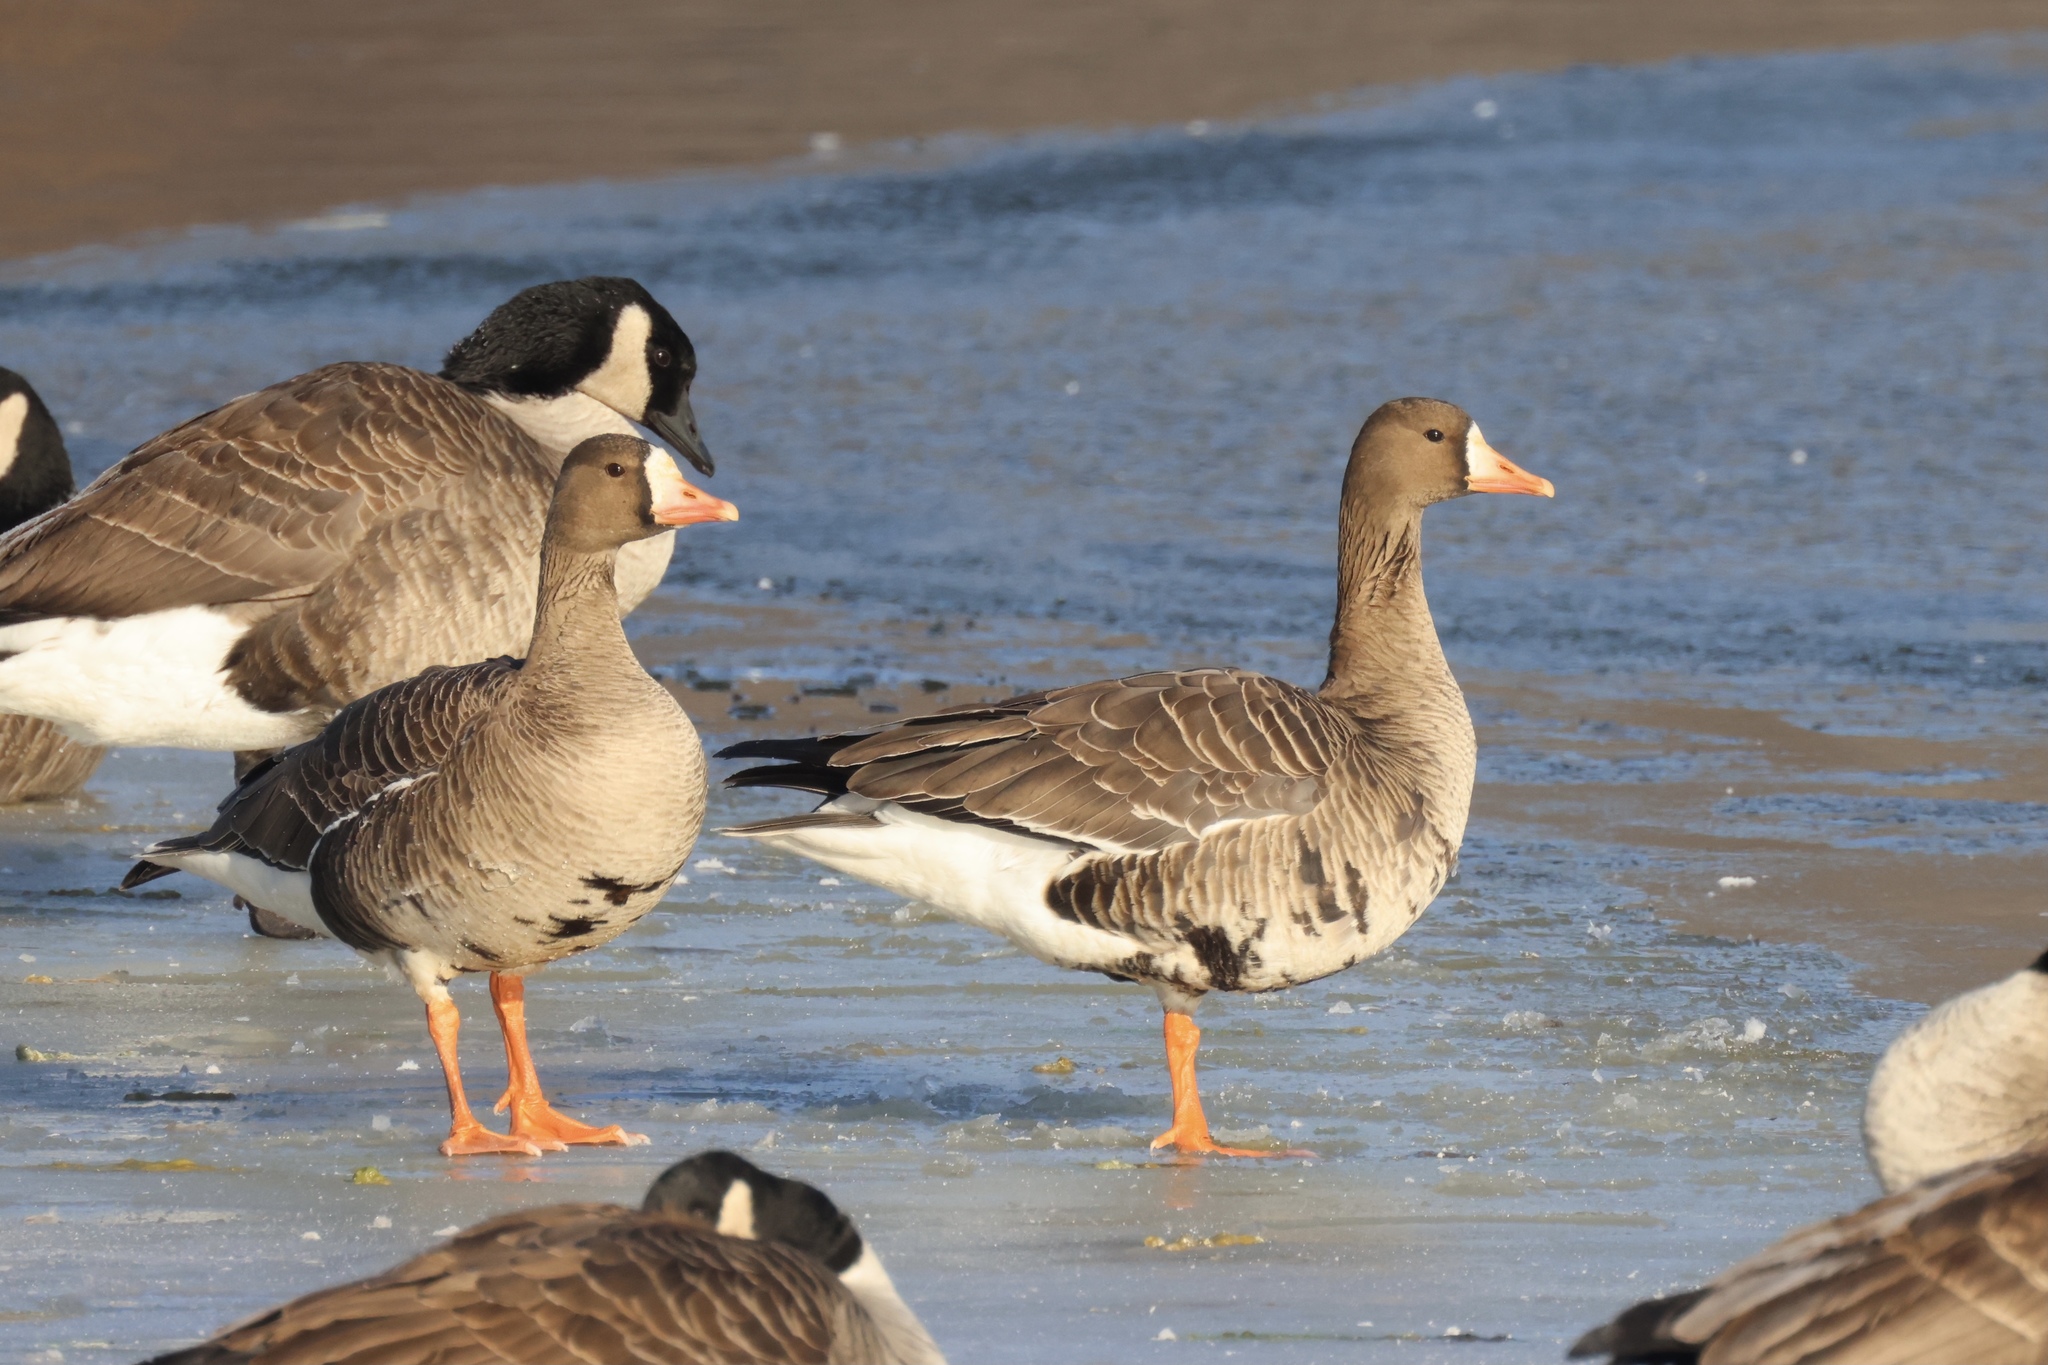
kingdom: Animalia
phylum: Chordata
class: Aves
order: Anseriformes
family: Anatidae
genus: Anser
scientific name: Anser albifrons
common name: Greater white-fronted goose
